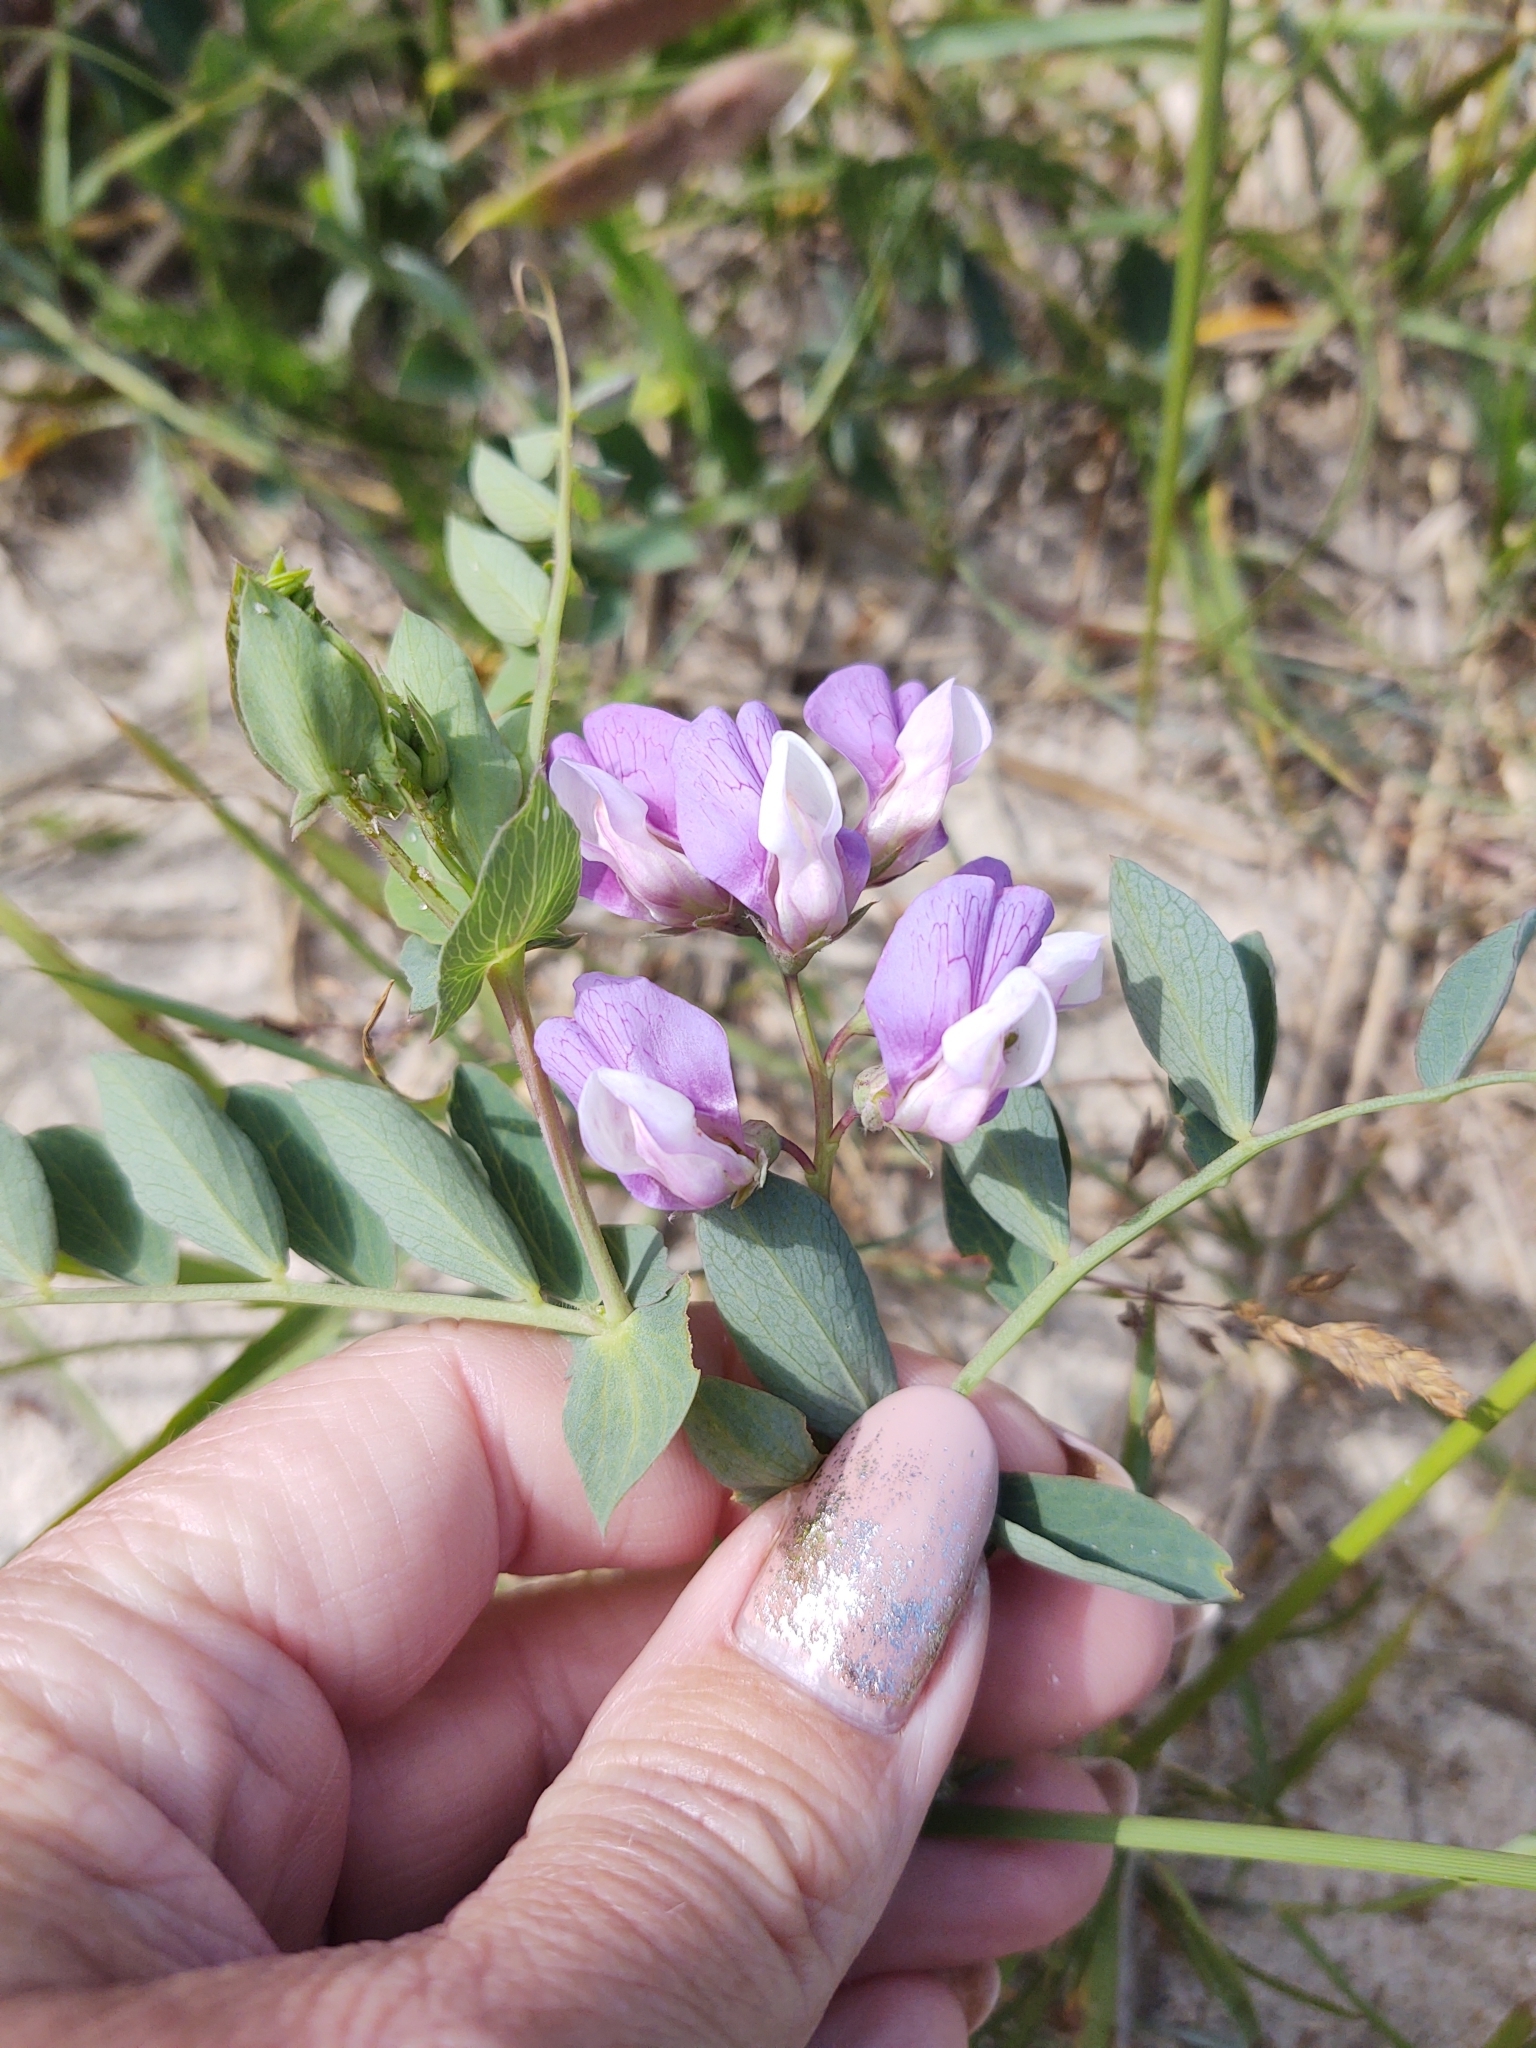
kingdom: Plantae
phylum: Tracheophyta
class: Magnoliopsida
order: Fabales
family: Fabaceae
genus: Lathyrus
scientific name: Lathyrus japonicus
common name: Sea pea
